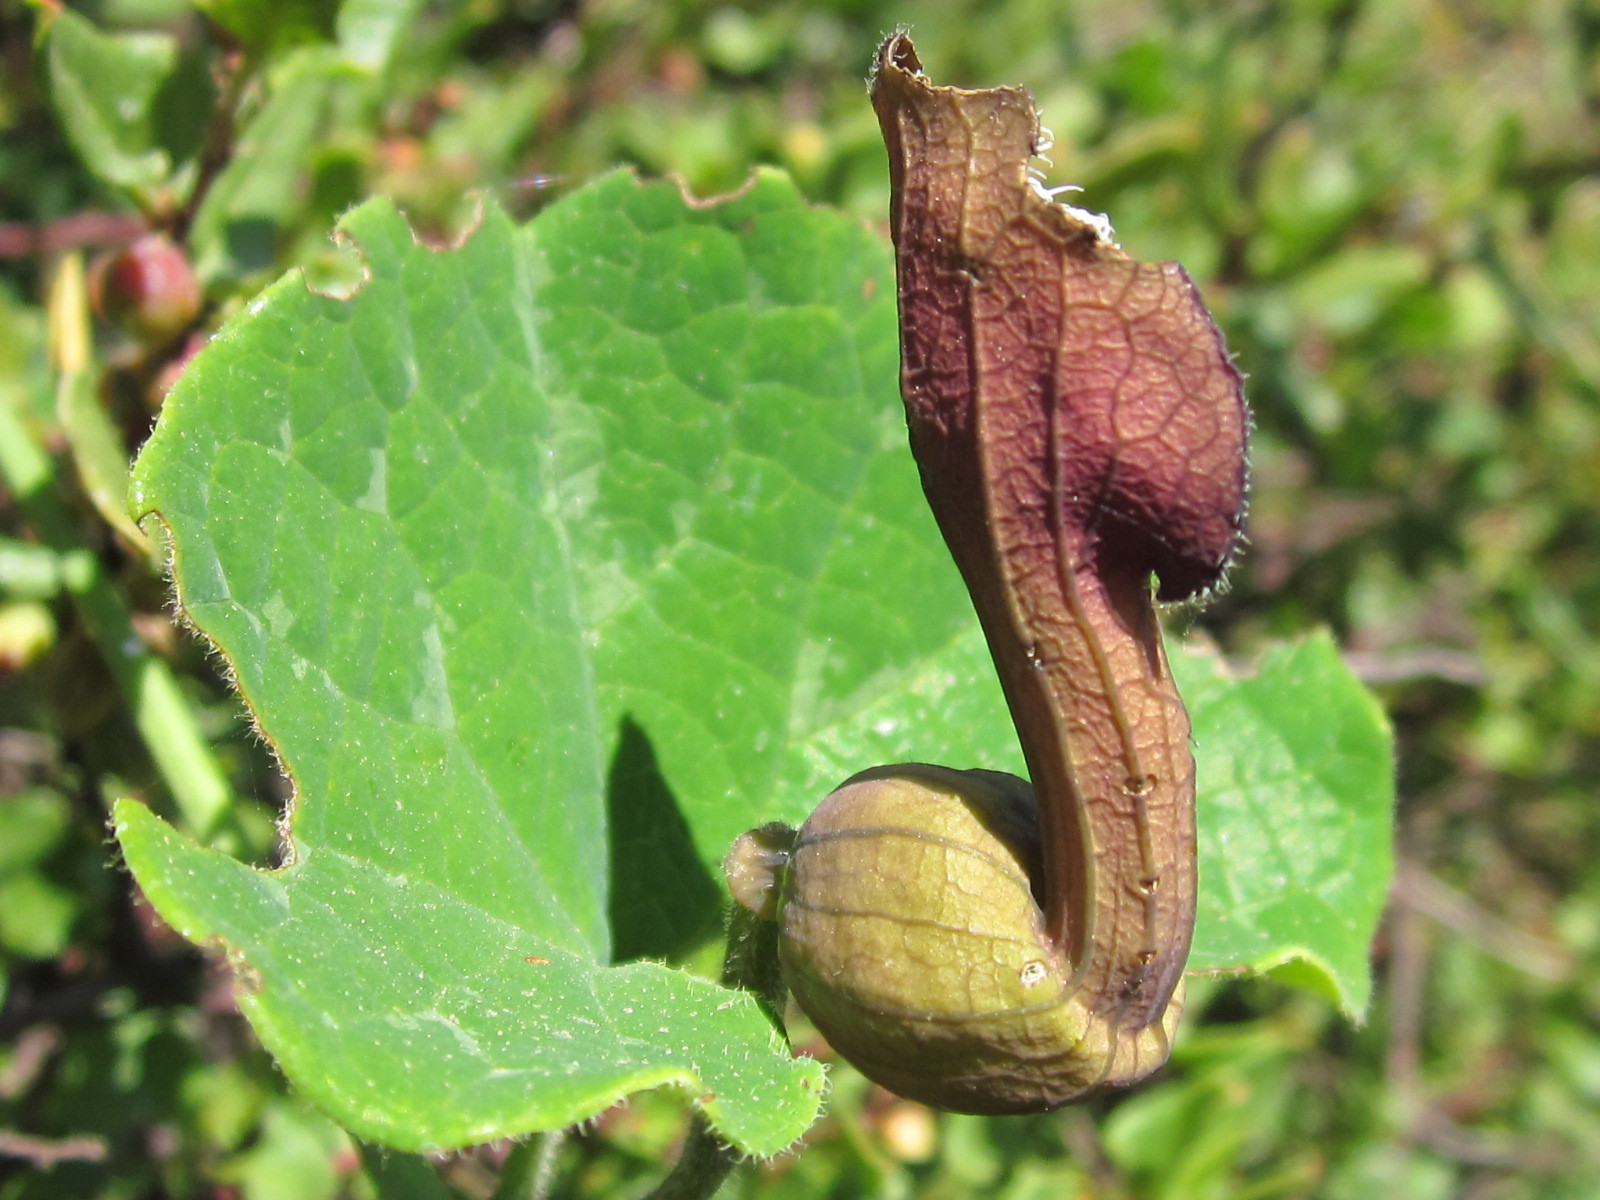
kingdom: Plantae
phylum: Tracheophyta
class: Magnoliopsida
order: Piperales
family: Aristolochiaceae
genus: Aristolochia
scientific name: Aristolochia chilensis
